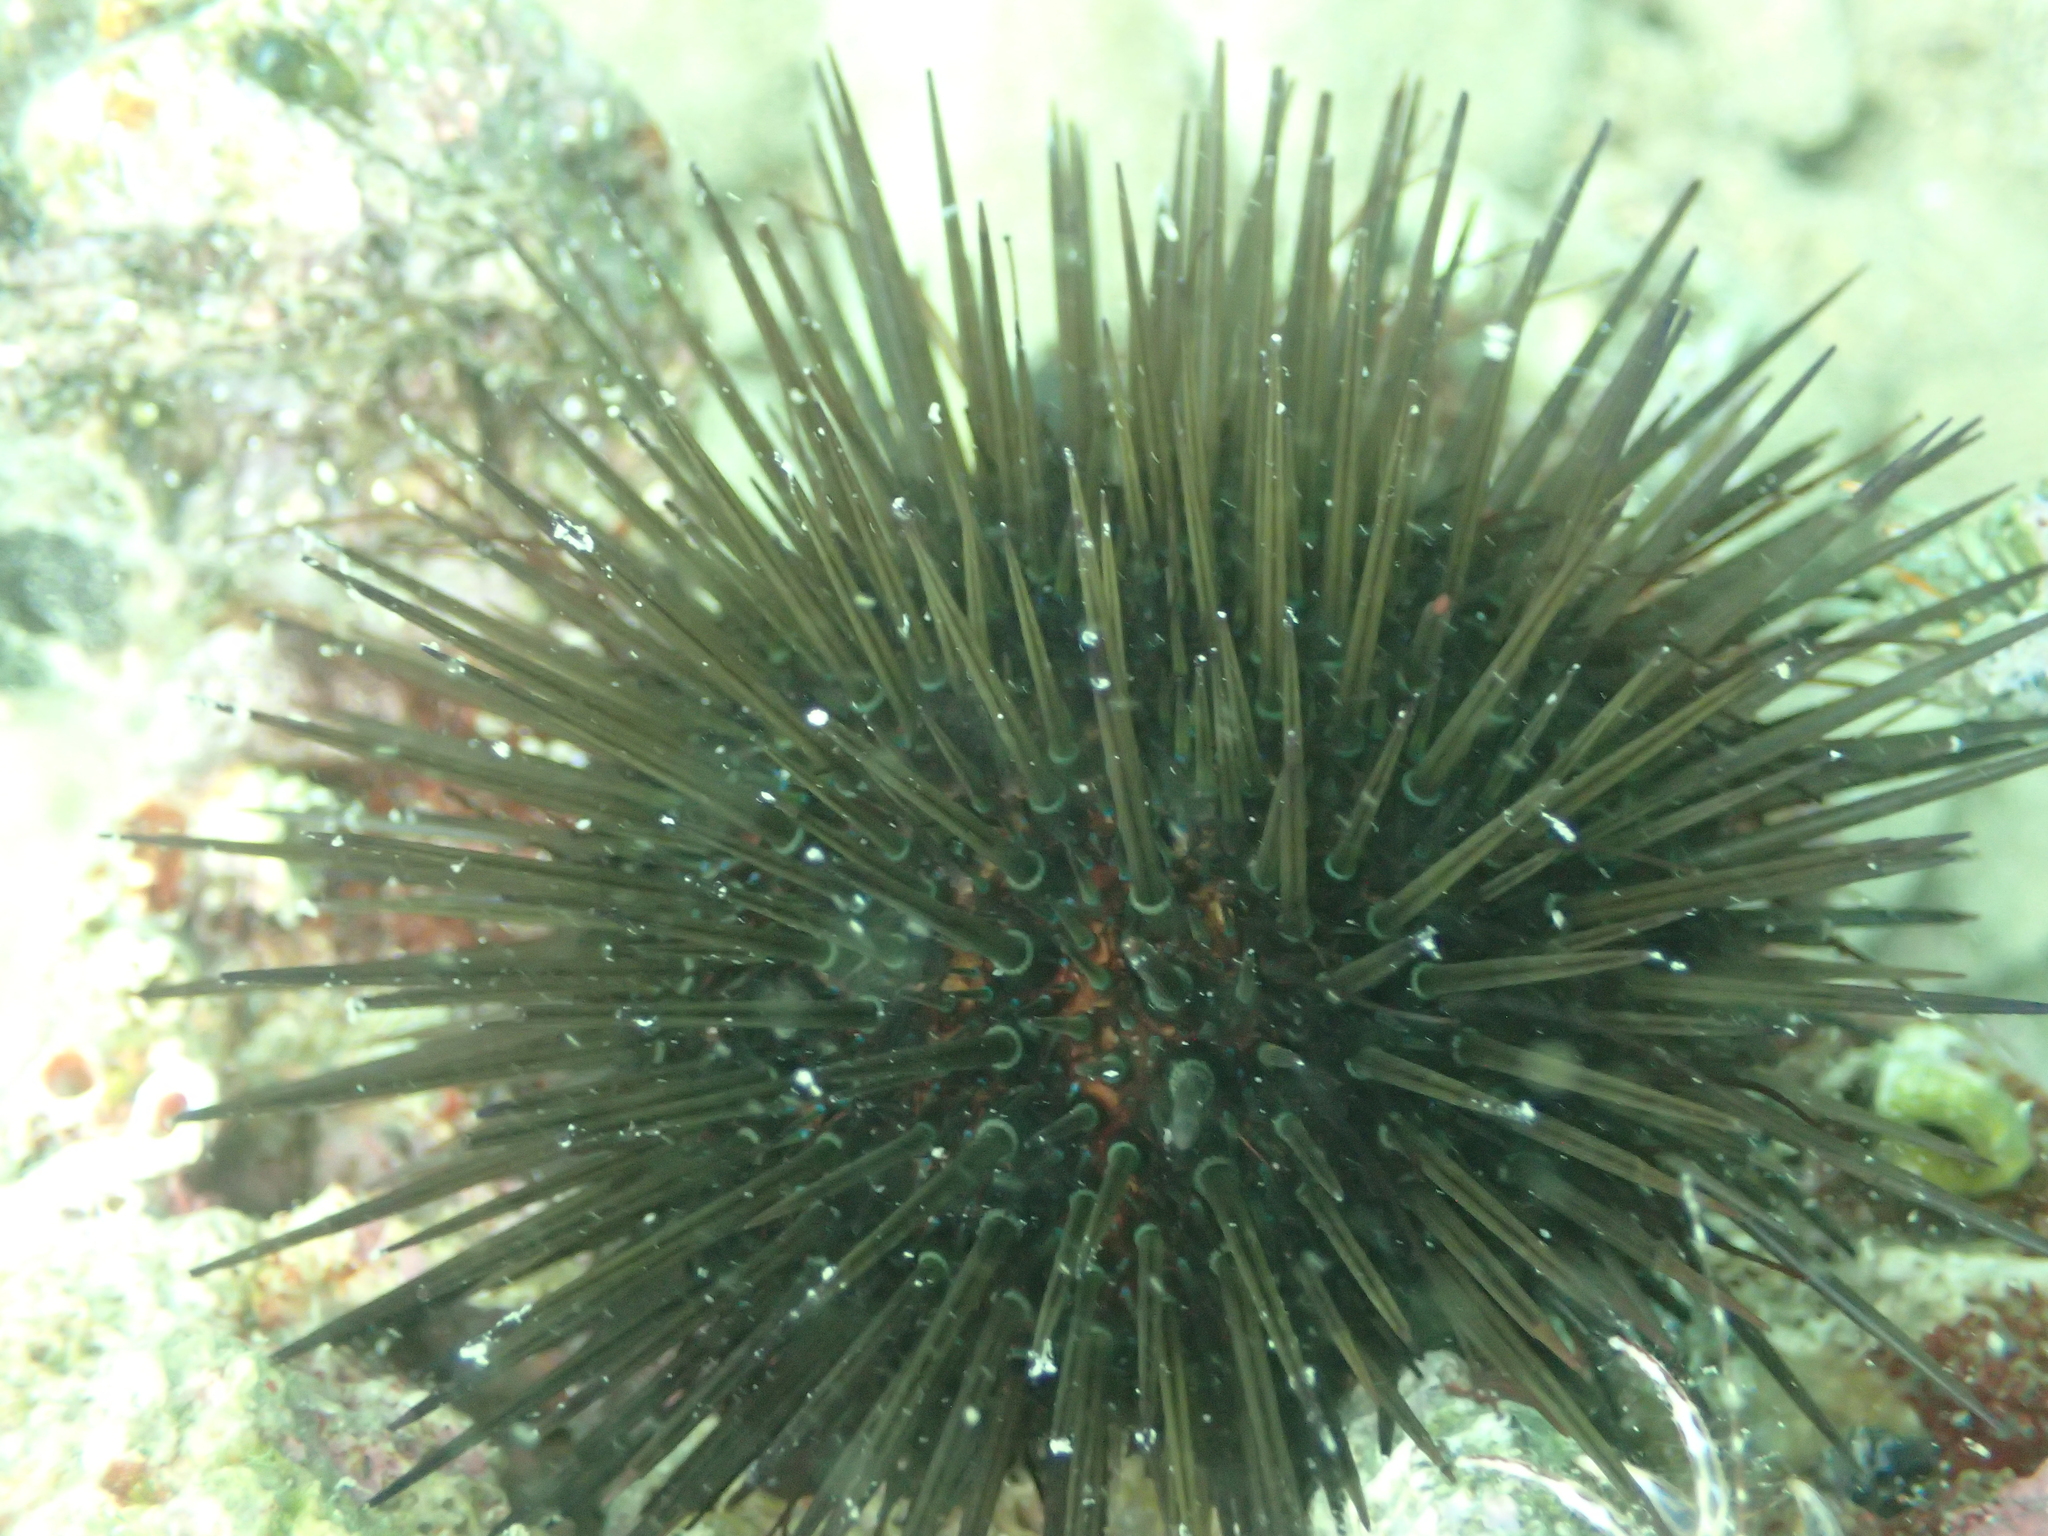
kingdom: Animalia
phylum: Echinodermata
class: Echinoidea
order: Camarodonta
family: Parechinidae
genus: Paracentrotus
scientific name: Paracentrotus lividus
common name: Purple sea urchin
